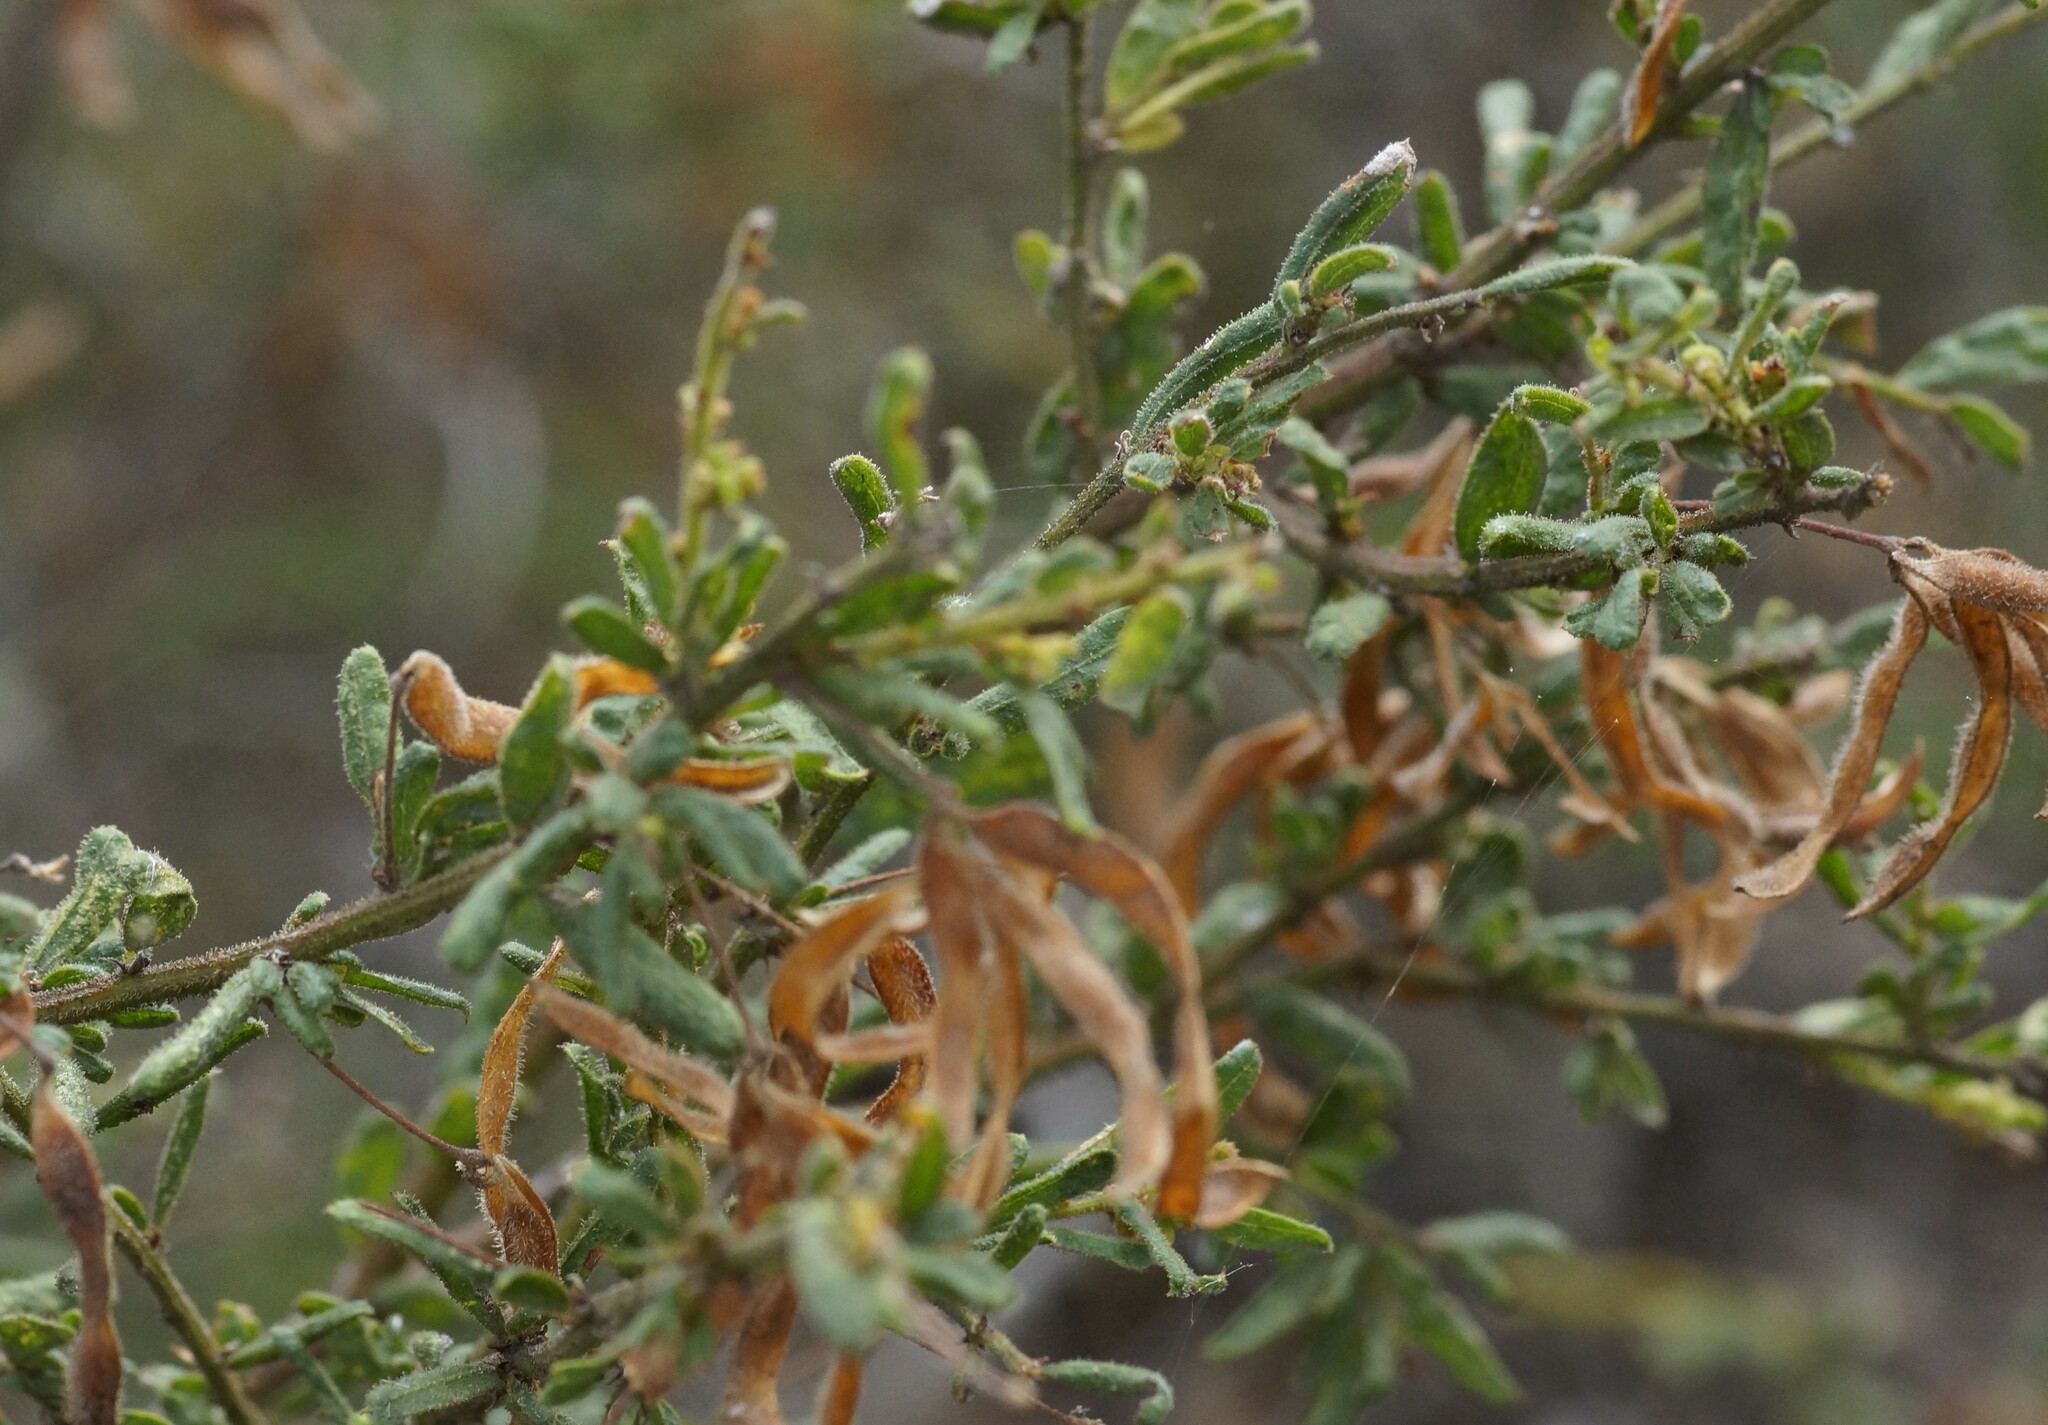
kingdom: Plantae
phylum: Tracheophyta
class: Magnoliopsida
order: Fabales
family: Fabaceae
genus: Acacia
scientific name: Acacia aspera
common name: Rough wattle
